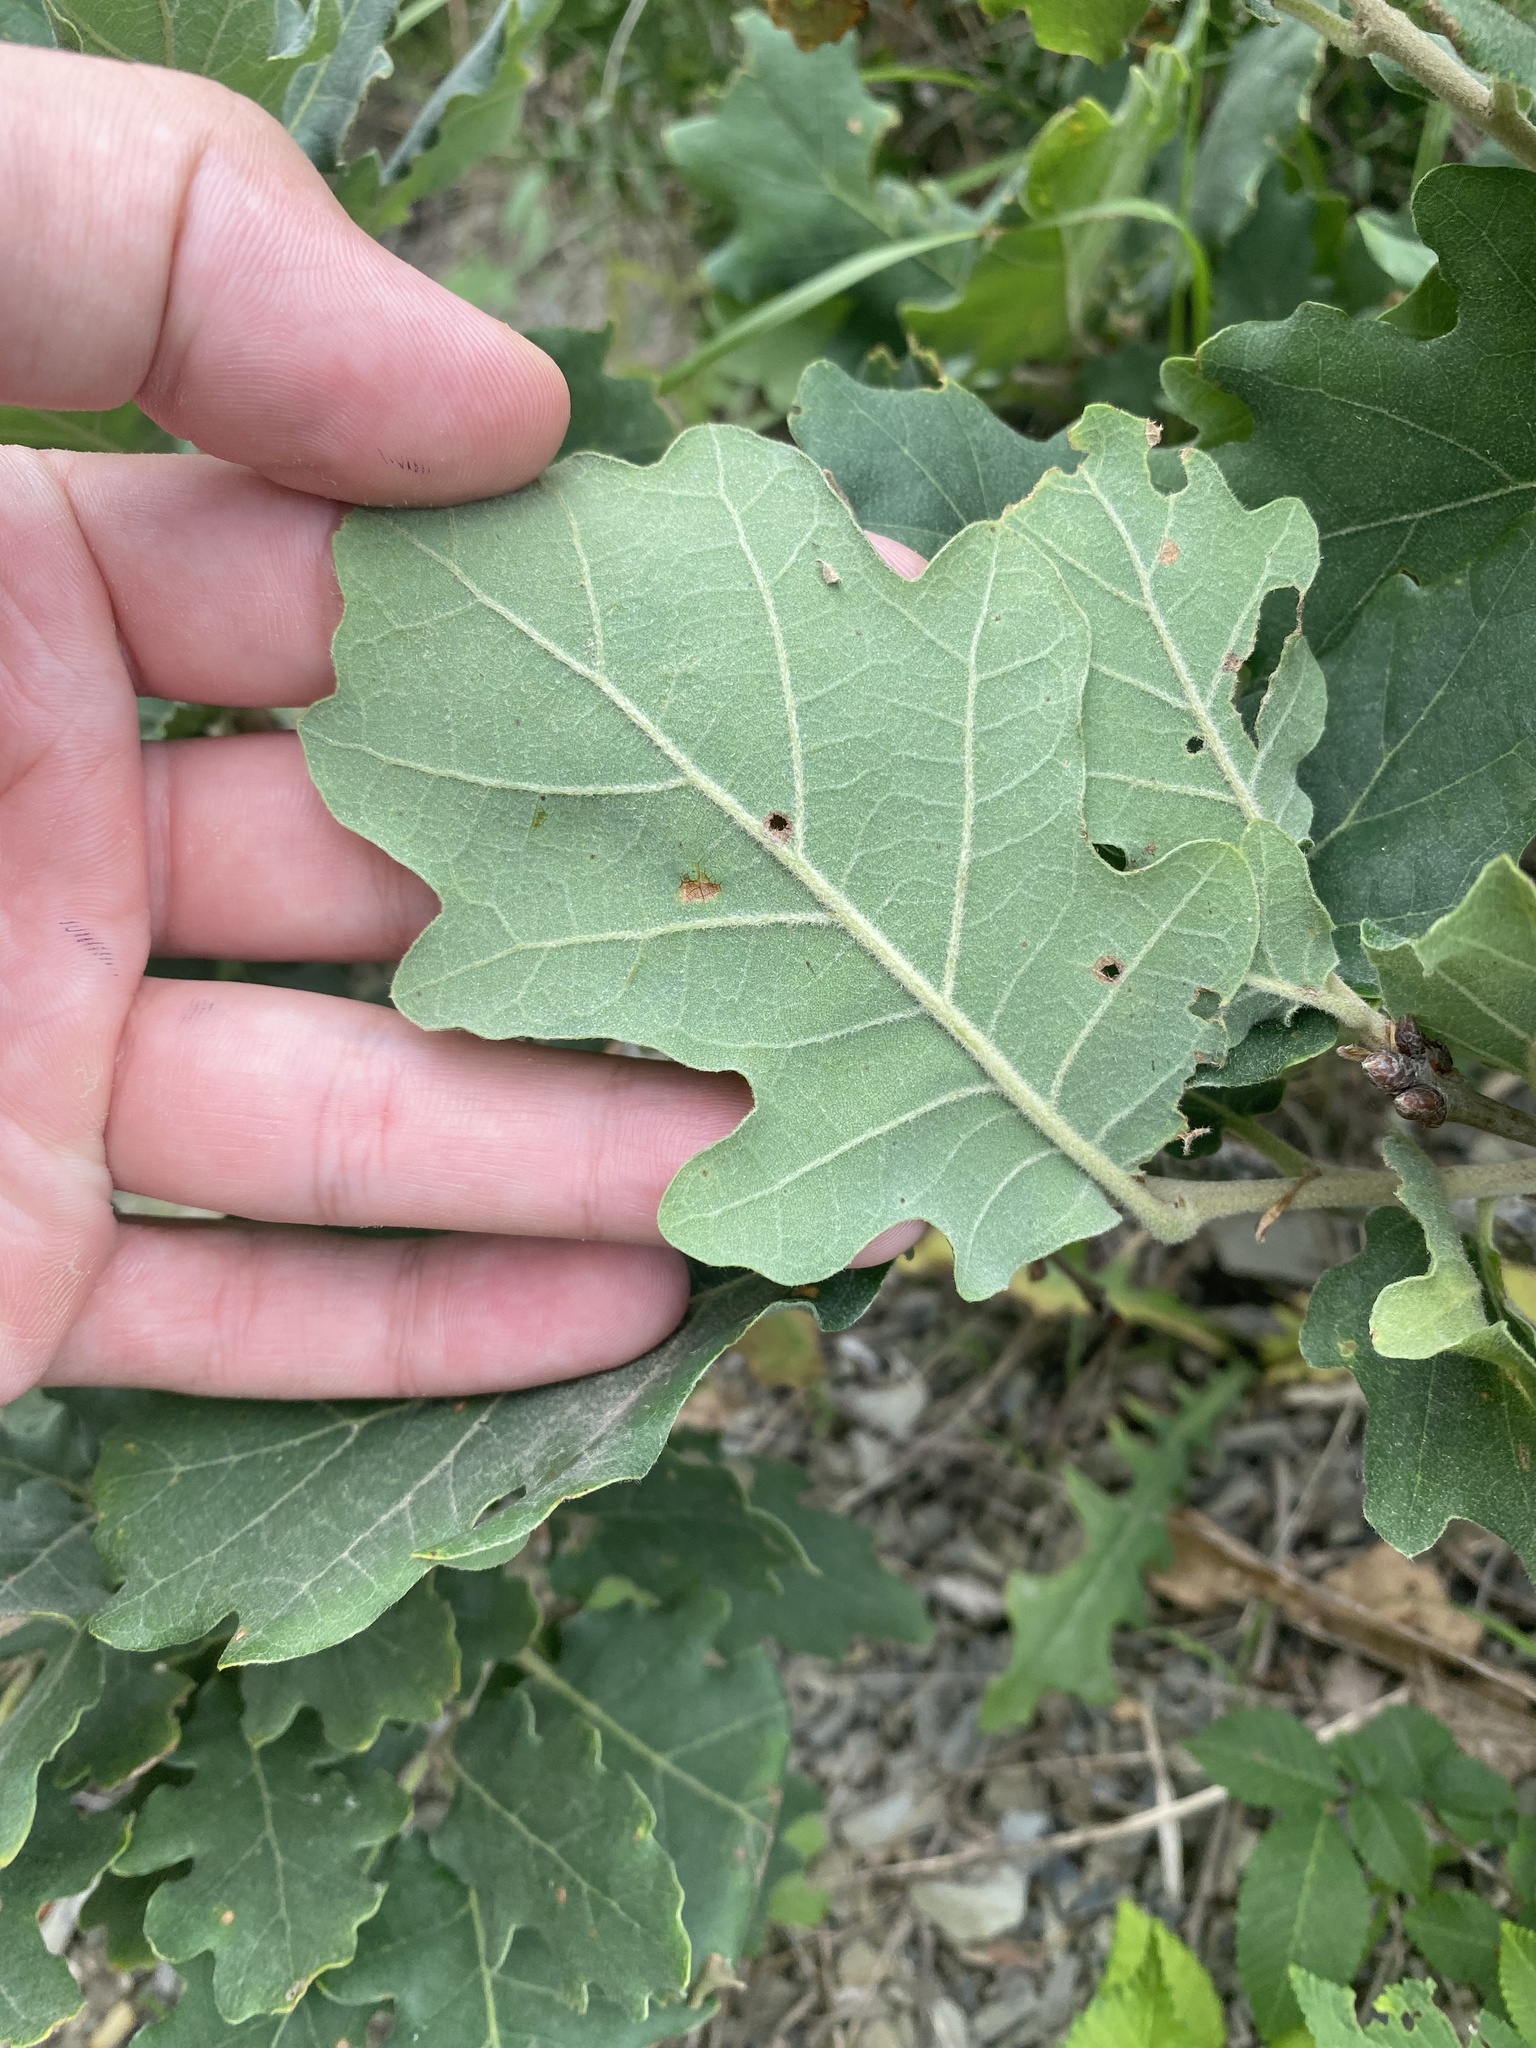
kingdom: Plantae
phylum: Tracheophyta
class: Magnoliopsida
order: Fagales
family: Fagaceae
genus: Quercus
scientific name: Quercus pubescens
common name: Downy oak
